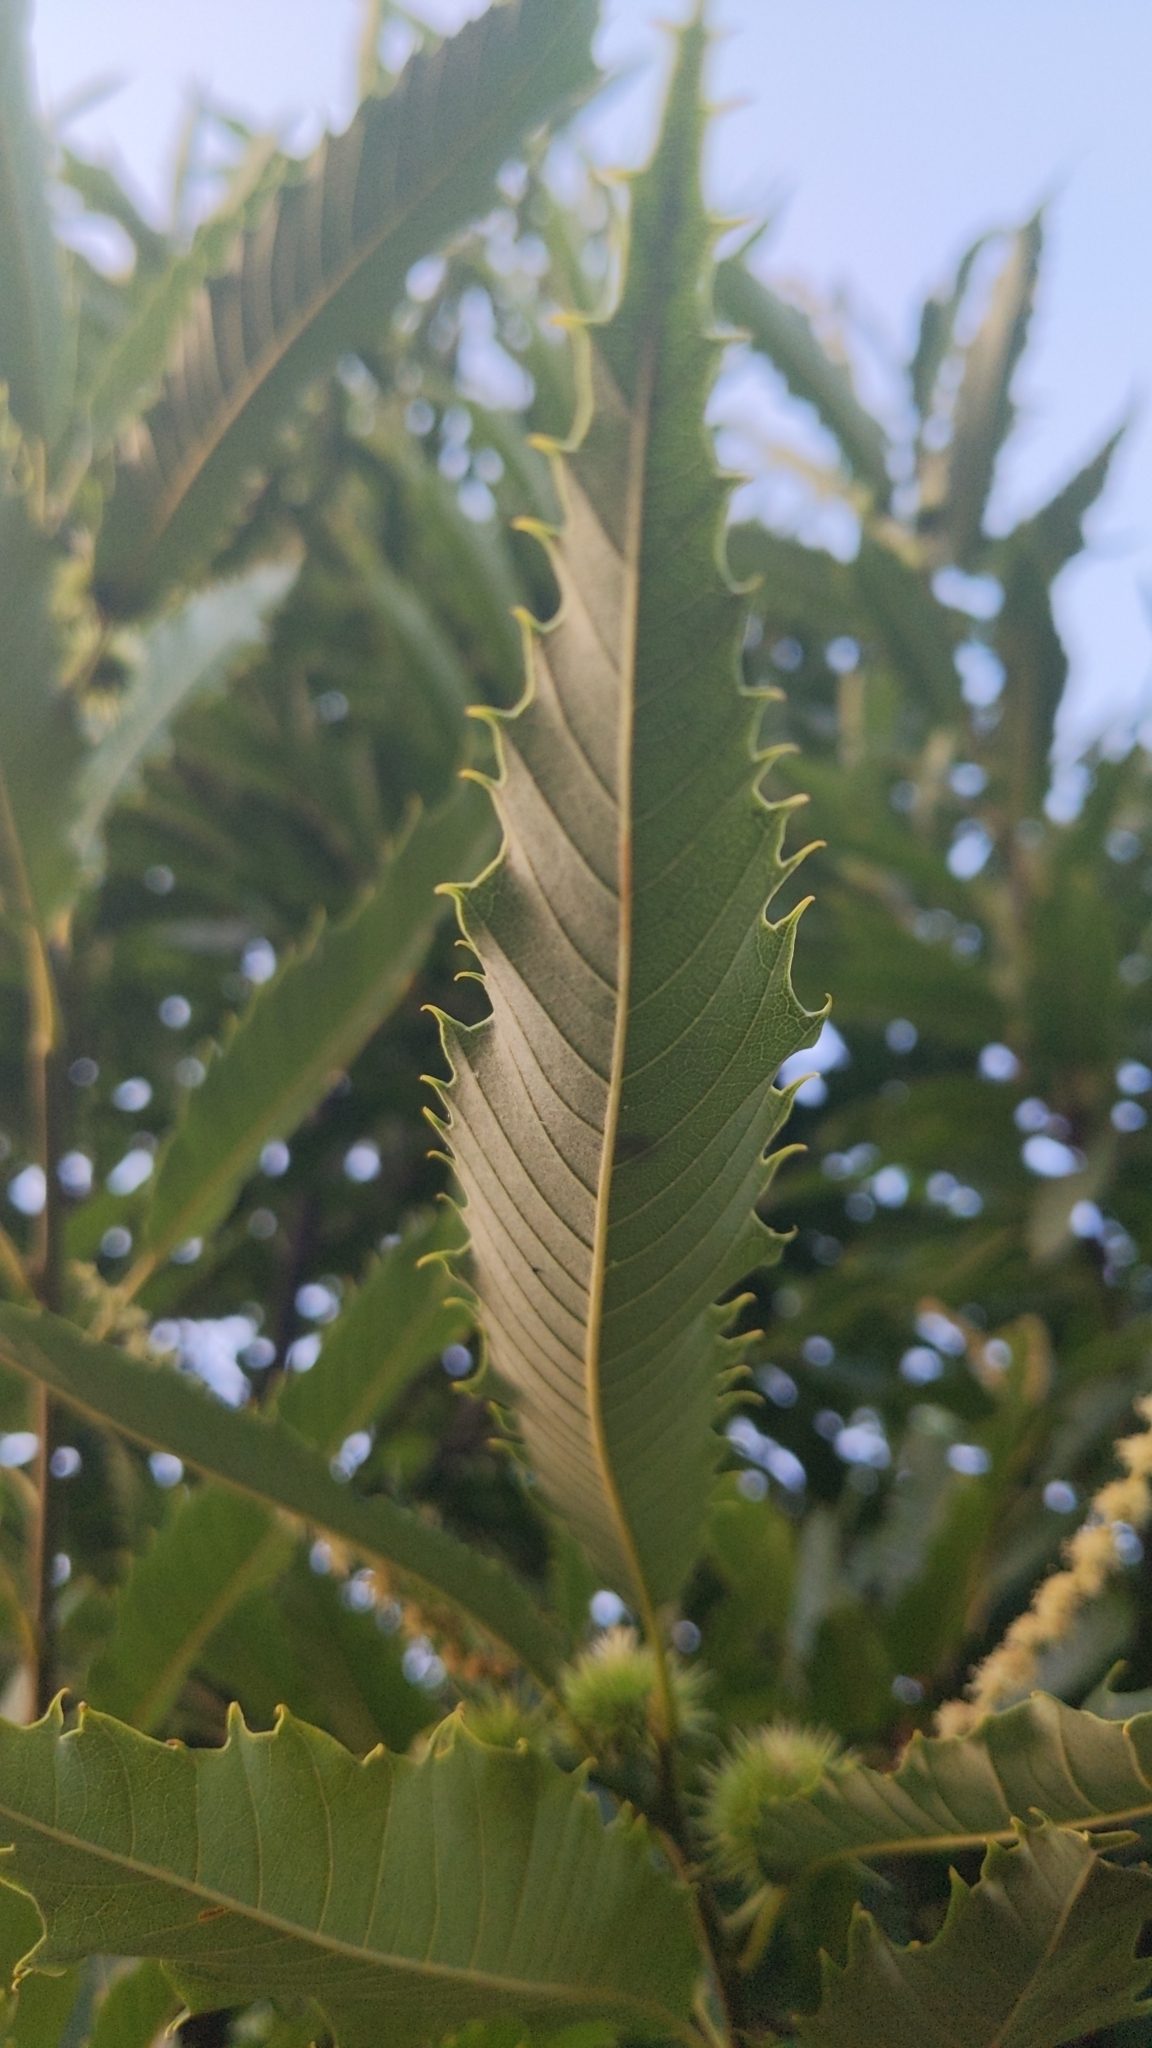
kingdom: Plantae
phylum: Tracheophyta
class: Magnoliopsida
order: Fagales
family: Fagaceae
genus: Castanea
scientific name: Castanea sativa
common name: Sweet chestnut
